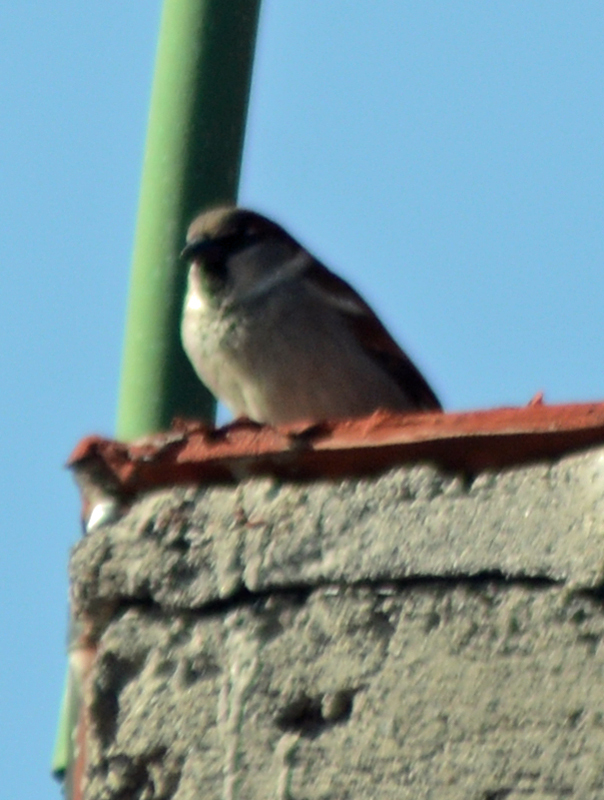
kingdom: Animalia
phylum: Chordata
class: Aves
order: Passeriformes
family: Passeridae
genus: Passer
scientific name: Passer domesticus
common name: House sparrow
